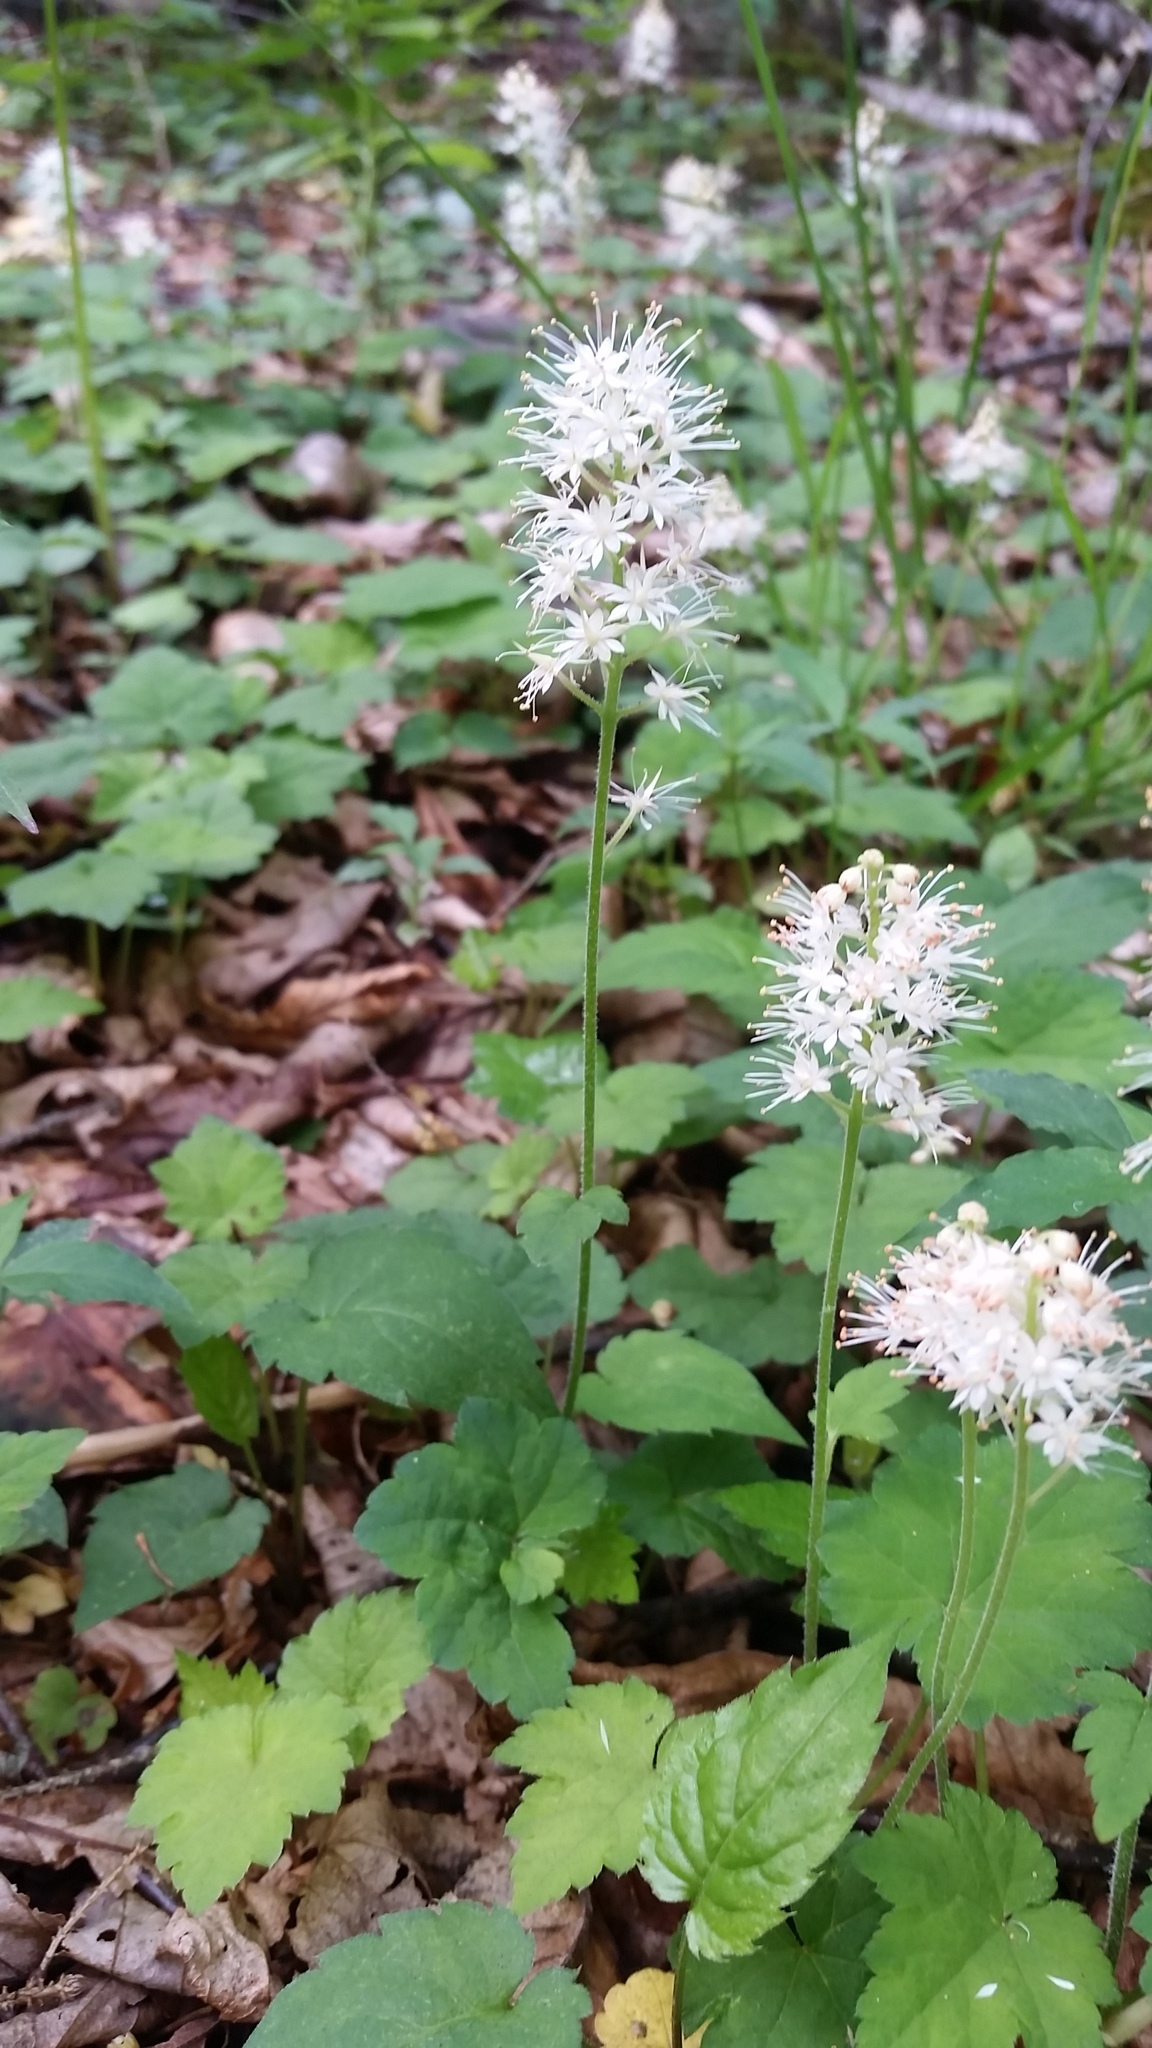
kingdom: Plantae
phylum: Tracheophyta
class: Magnoliopsida
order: Saxifragales
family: Saxifragaceae
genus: Tiarella
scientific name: Tiarella austrina
